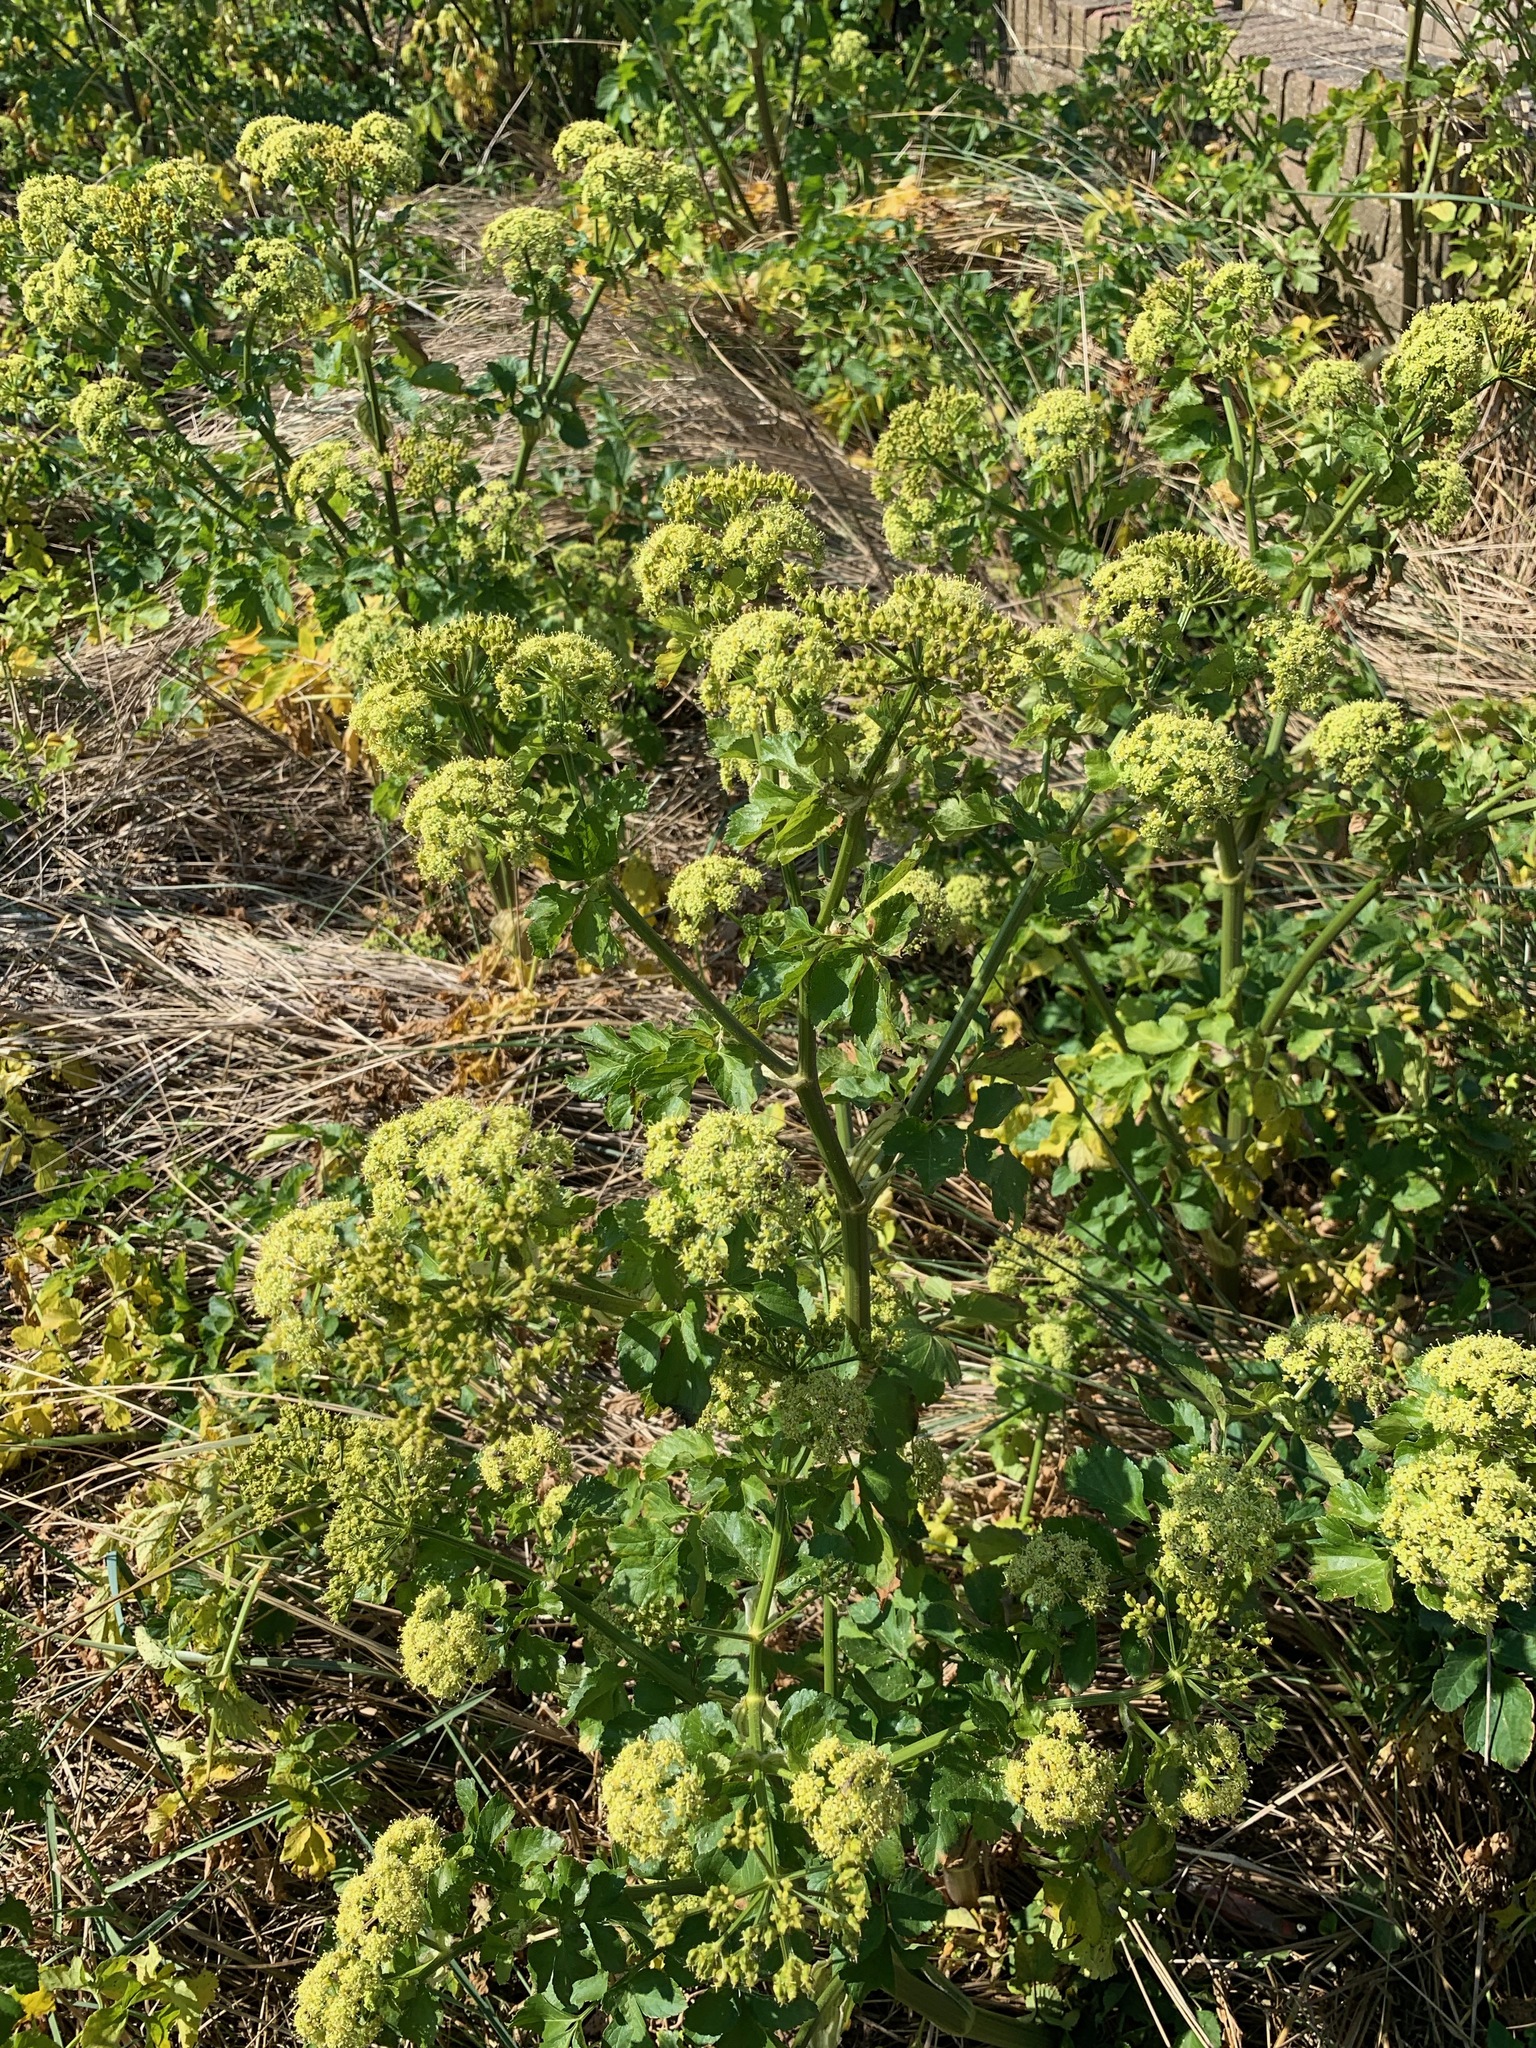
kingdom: Plantae
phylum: Tracheophyta
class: Magnoliopsida
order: Apiales
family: Apiaceae
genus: Smyrnium
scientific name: Smyrnium olusatrum
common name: Alexanders
